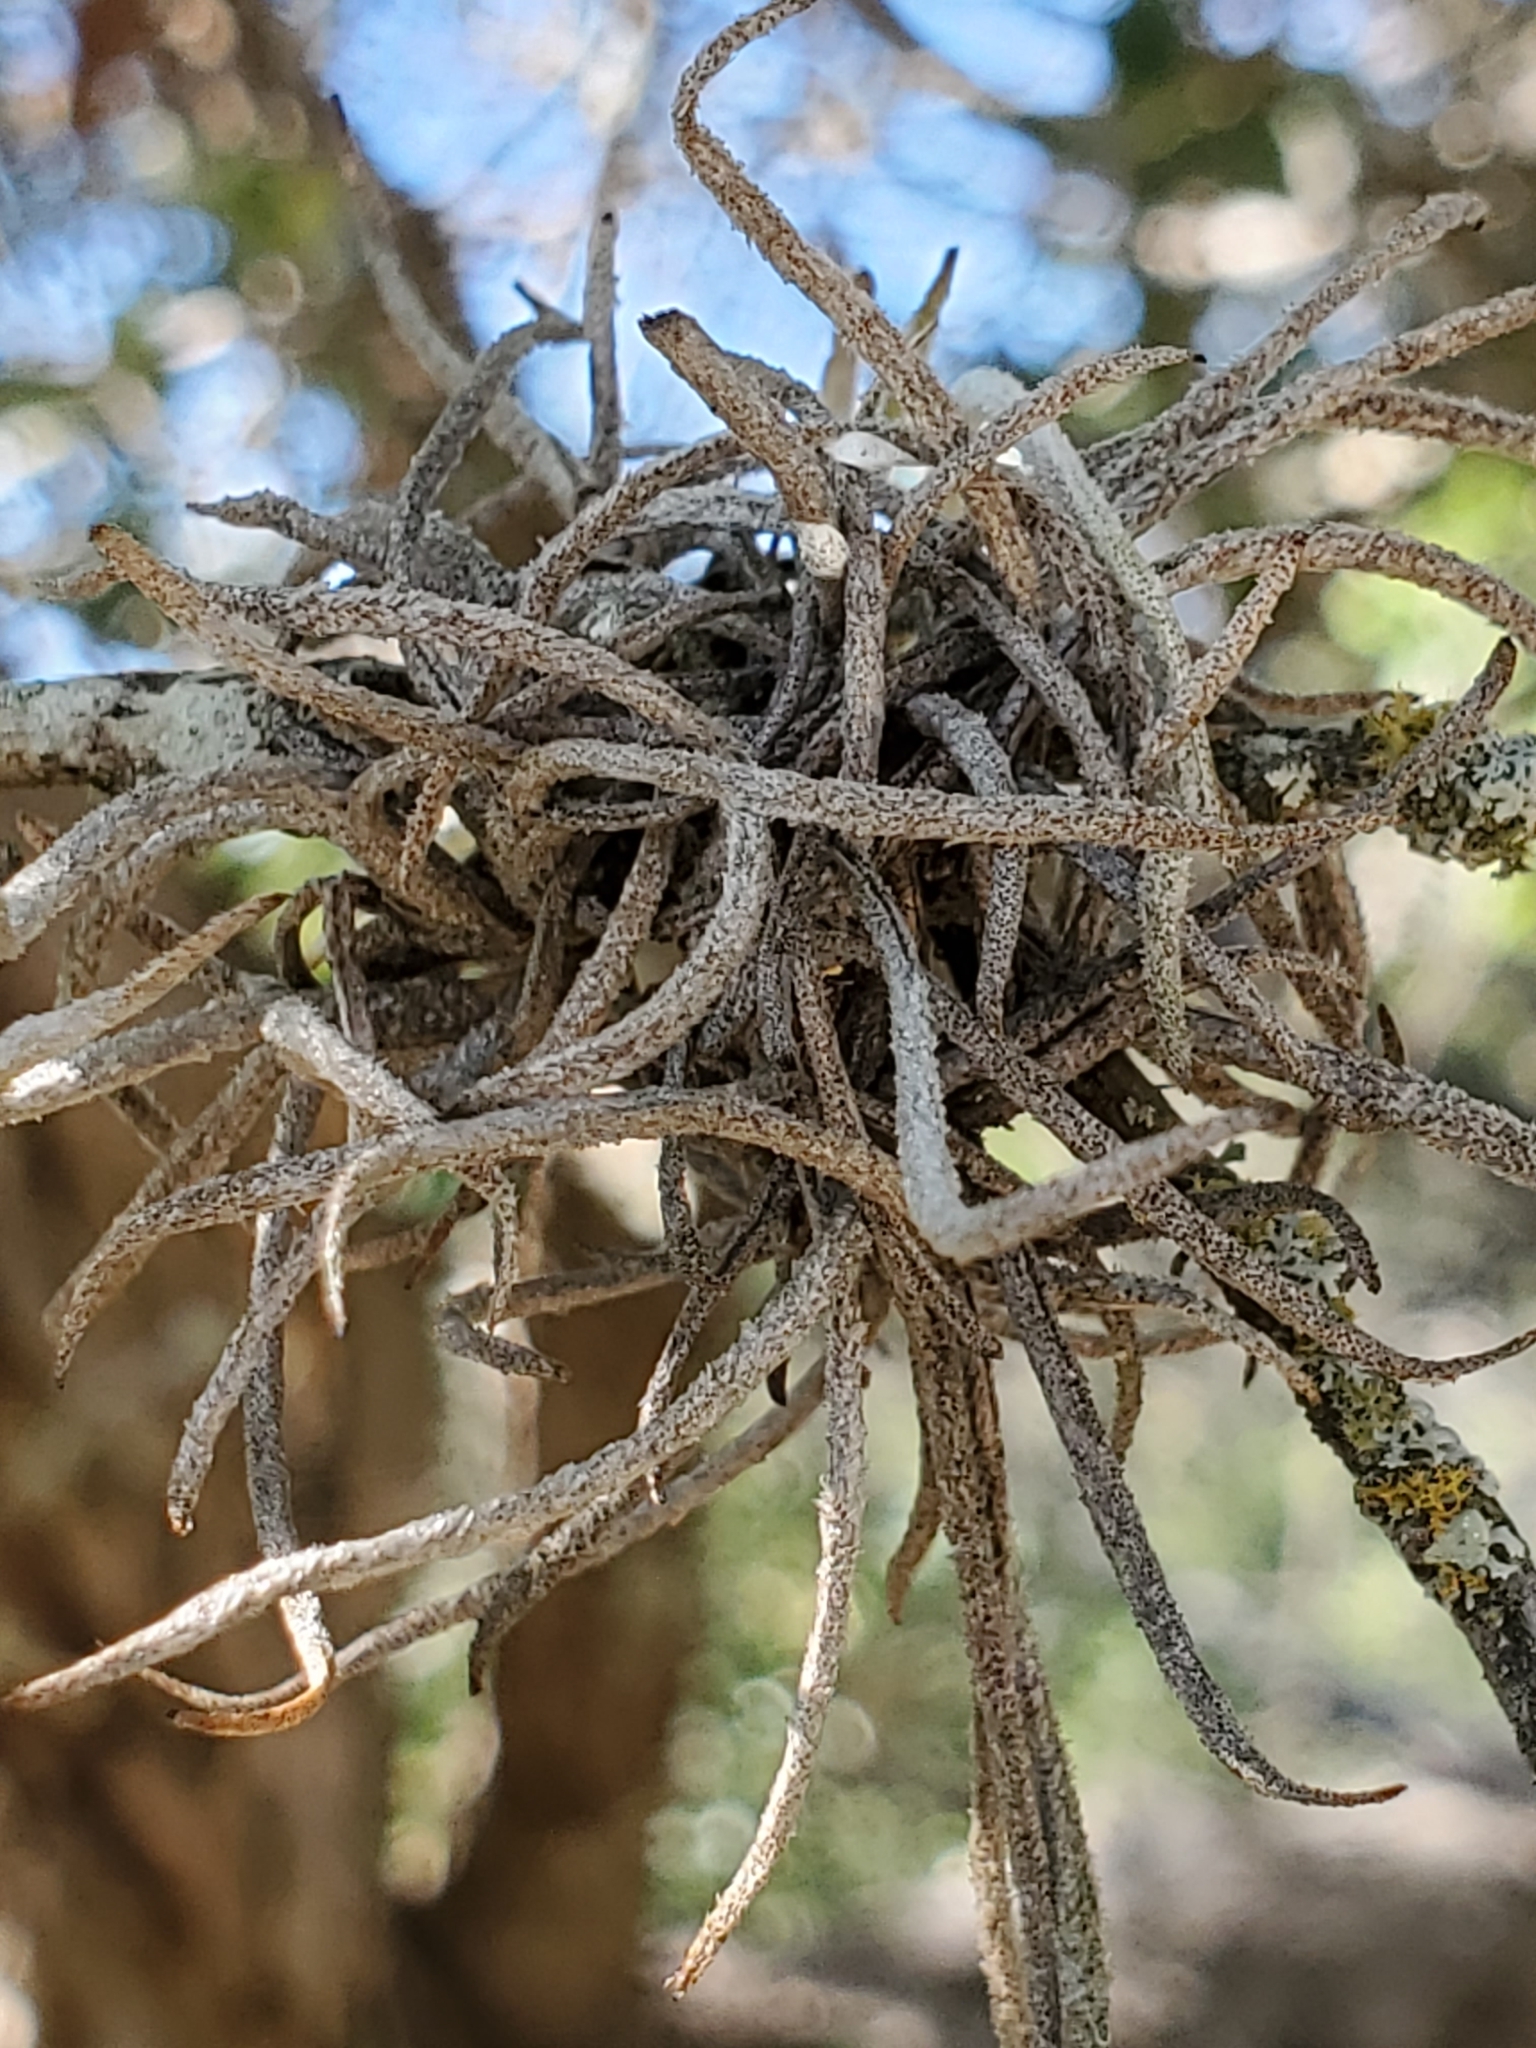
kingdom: Plantae
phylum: Tracheophyta
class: Liliopsida
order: Poales
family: Bromeliaceae
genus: Tillandsia
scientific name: Tillandsia recurvata
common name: Small ballmoss
